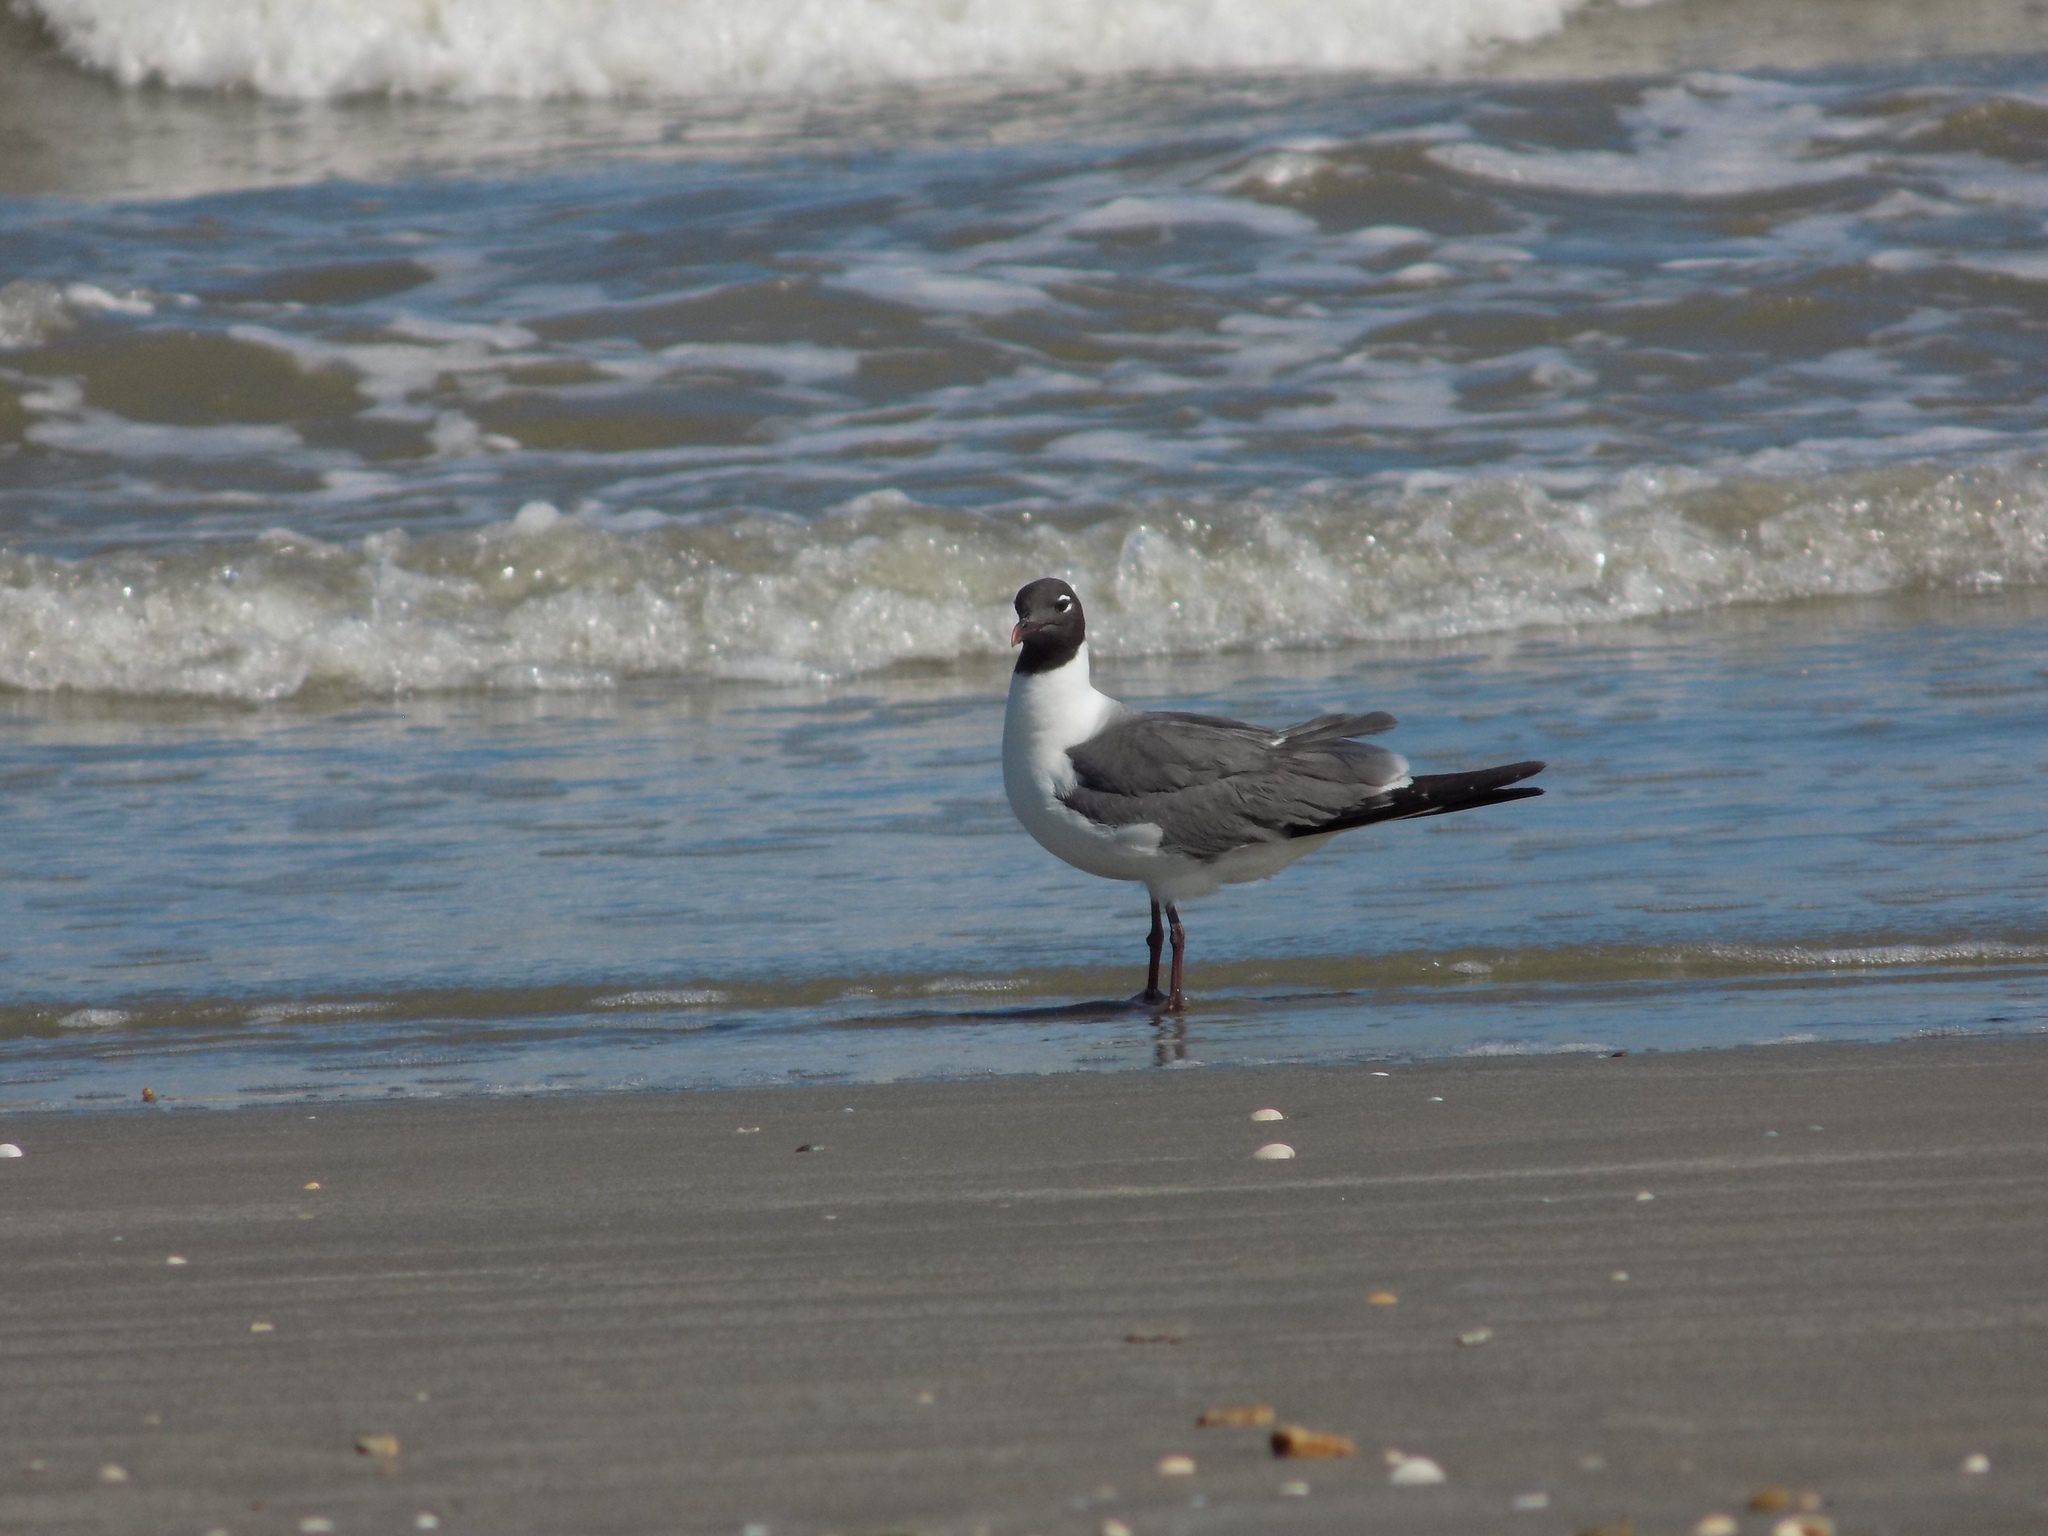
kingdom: Animalia
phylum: Chordata
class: Aves
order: Charadriiformes
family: Laridae
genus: Leucophaeus
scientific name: Leucophaeus atricilla
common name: Laughing gull
